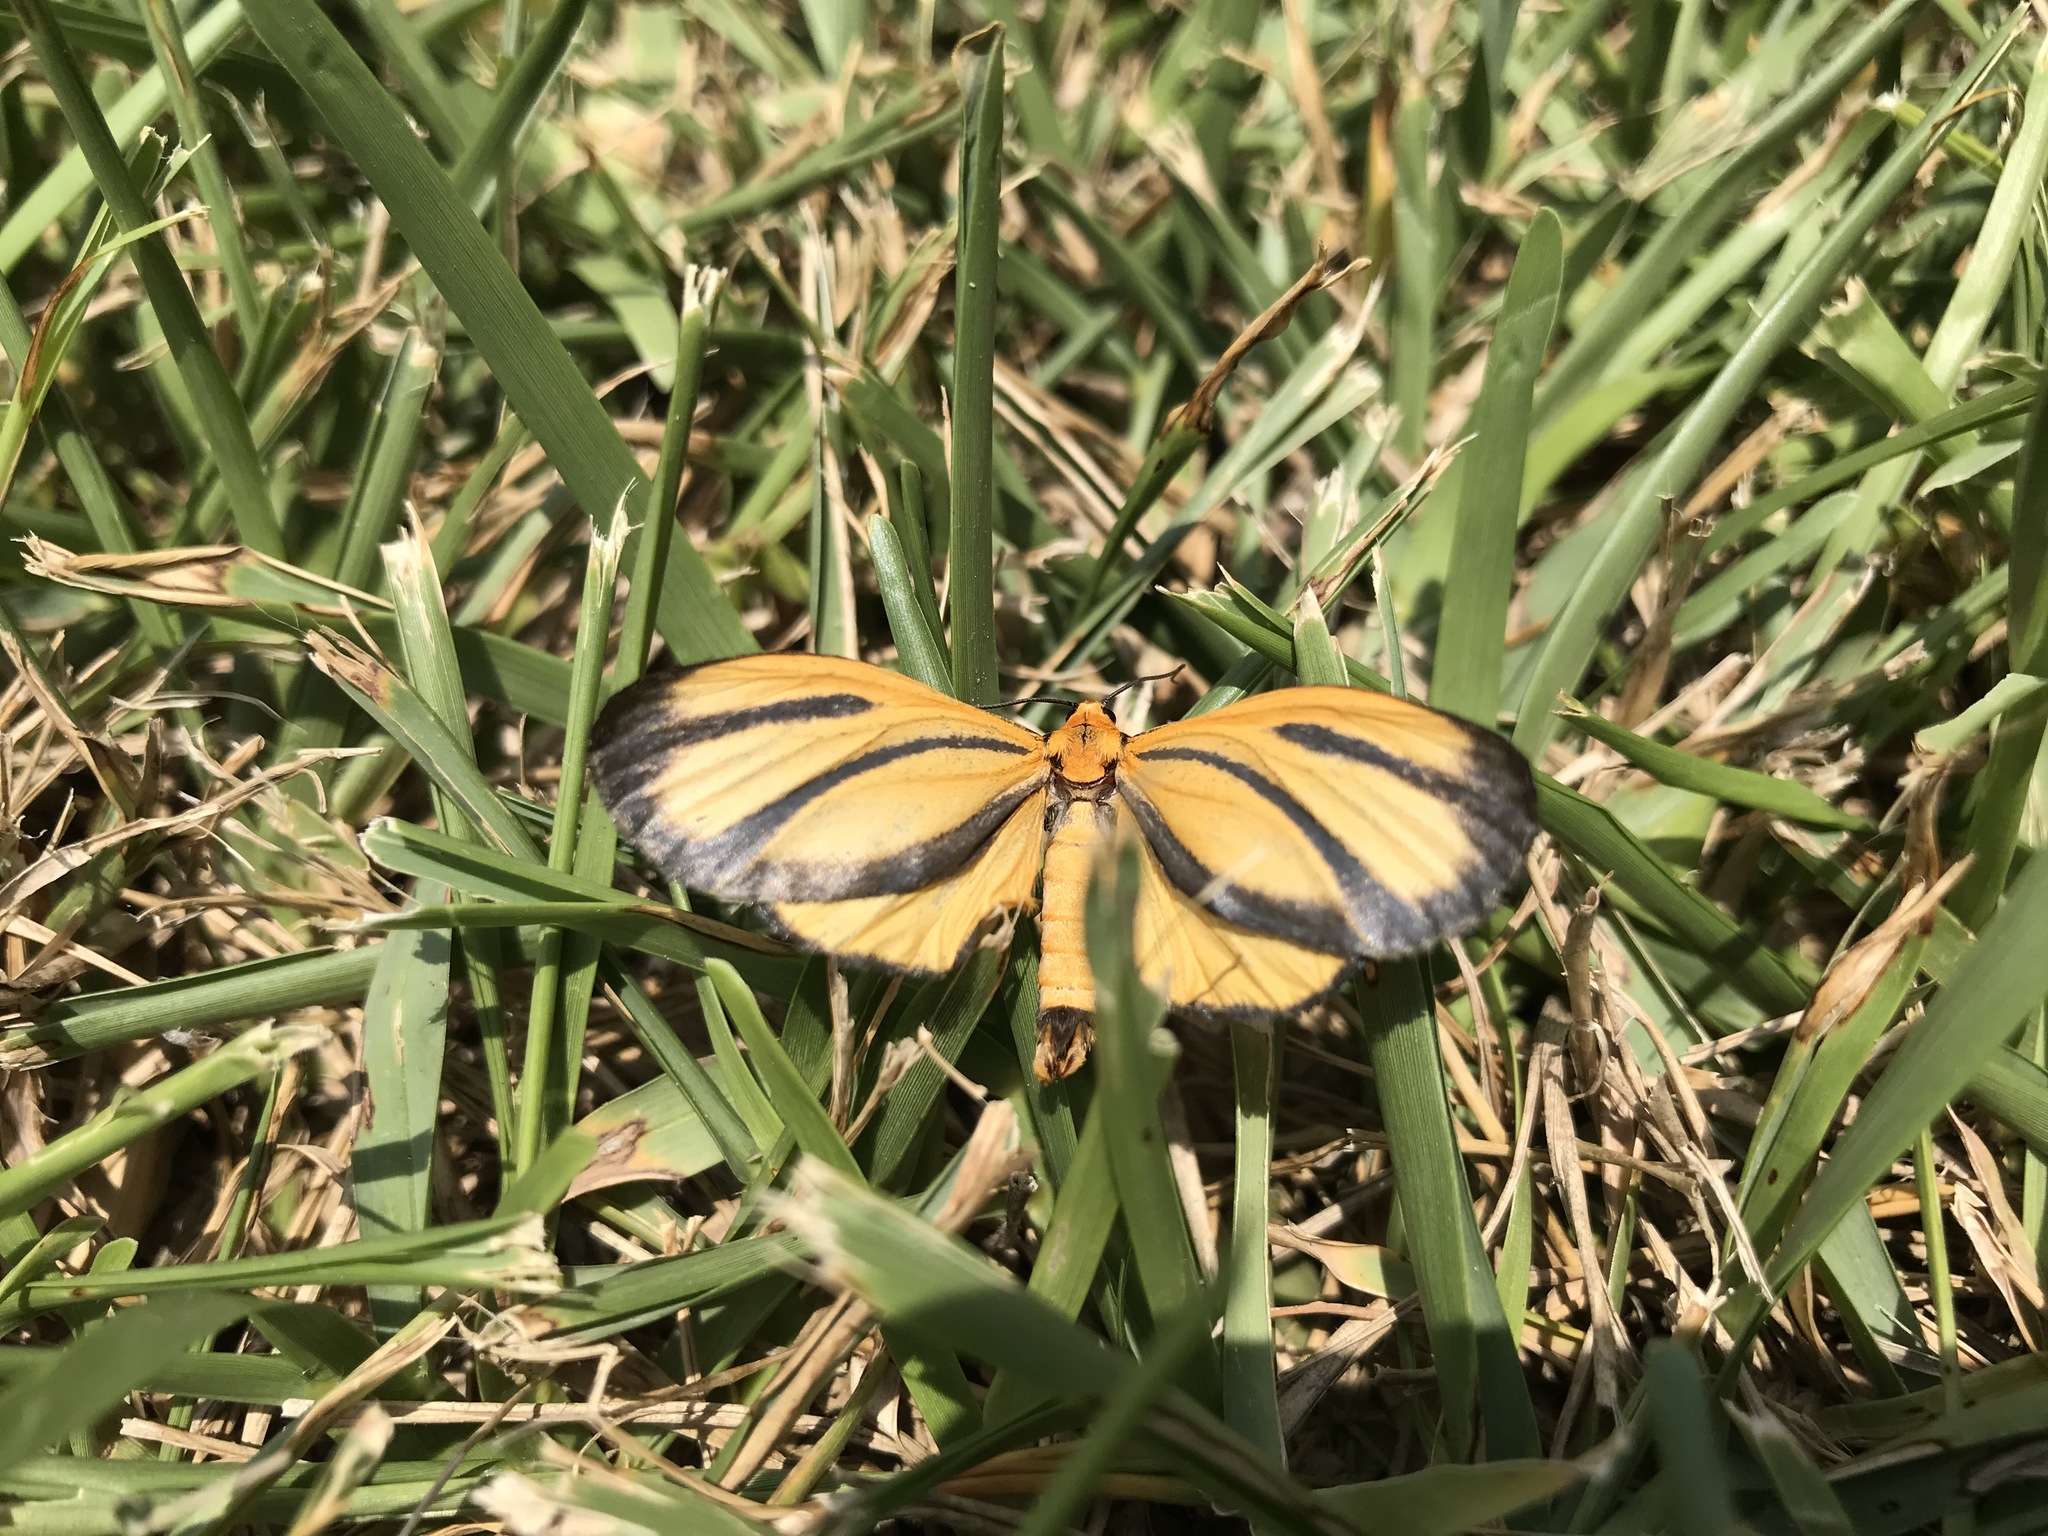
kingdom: Animalia
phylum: Arthropoda
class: Insecta
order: Lepidoptera
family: Erebidae
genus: Eurylomia
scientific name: Eurylomia cordula
